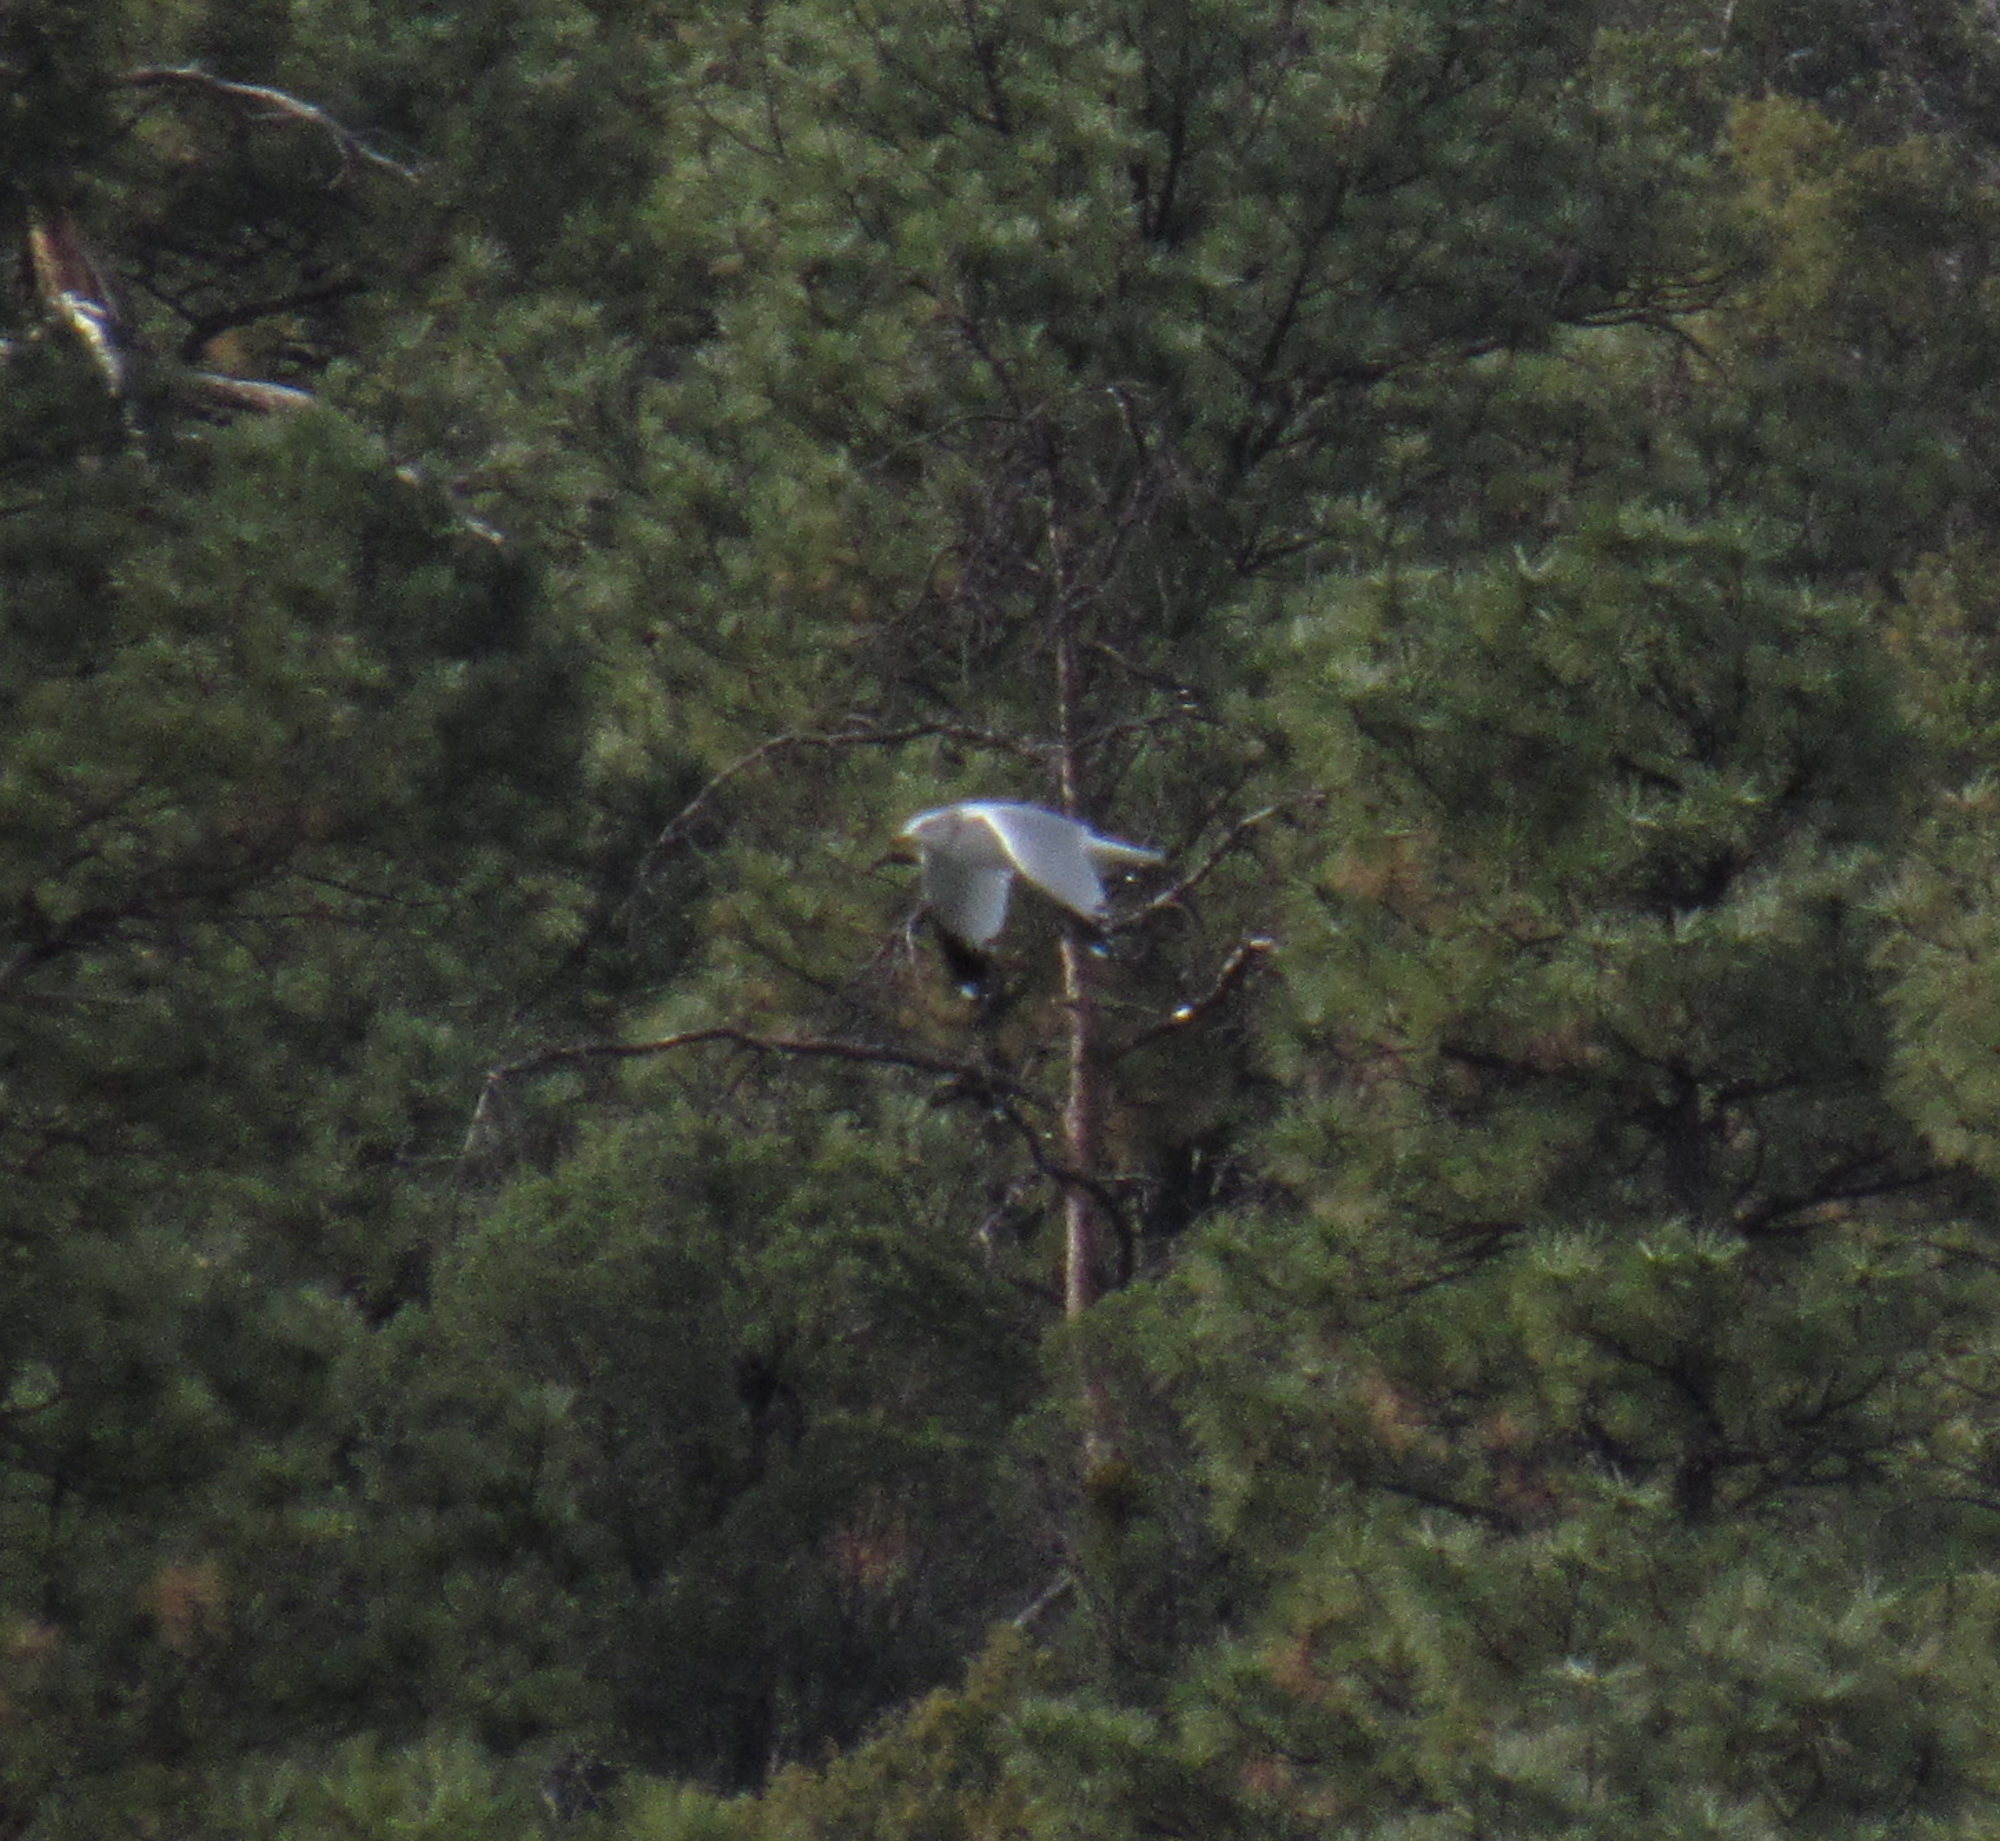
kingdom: Animalia
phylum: Chordata
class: Aves
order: Charadriiformes
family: Laridae
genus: Larus
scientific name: Larus delawarensis
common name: Ring-billed gull
